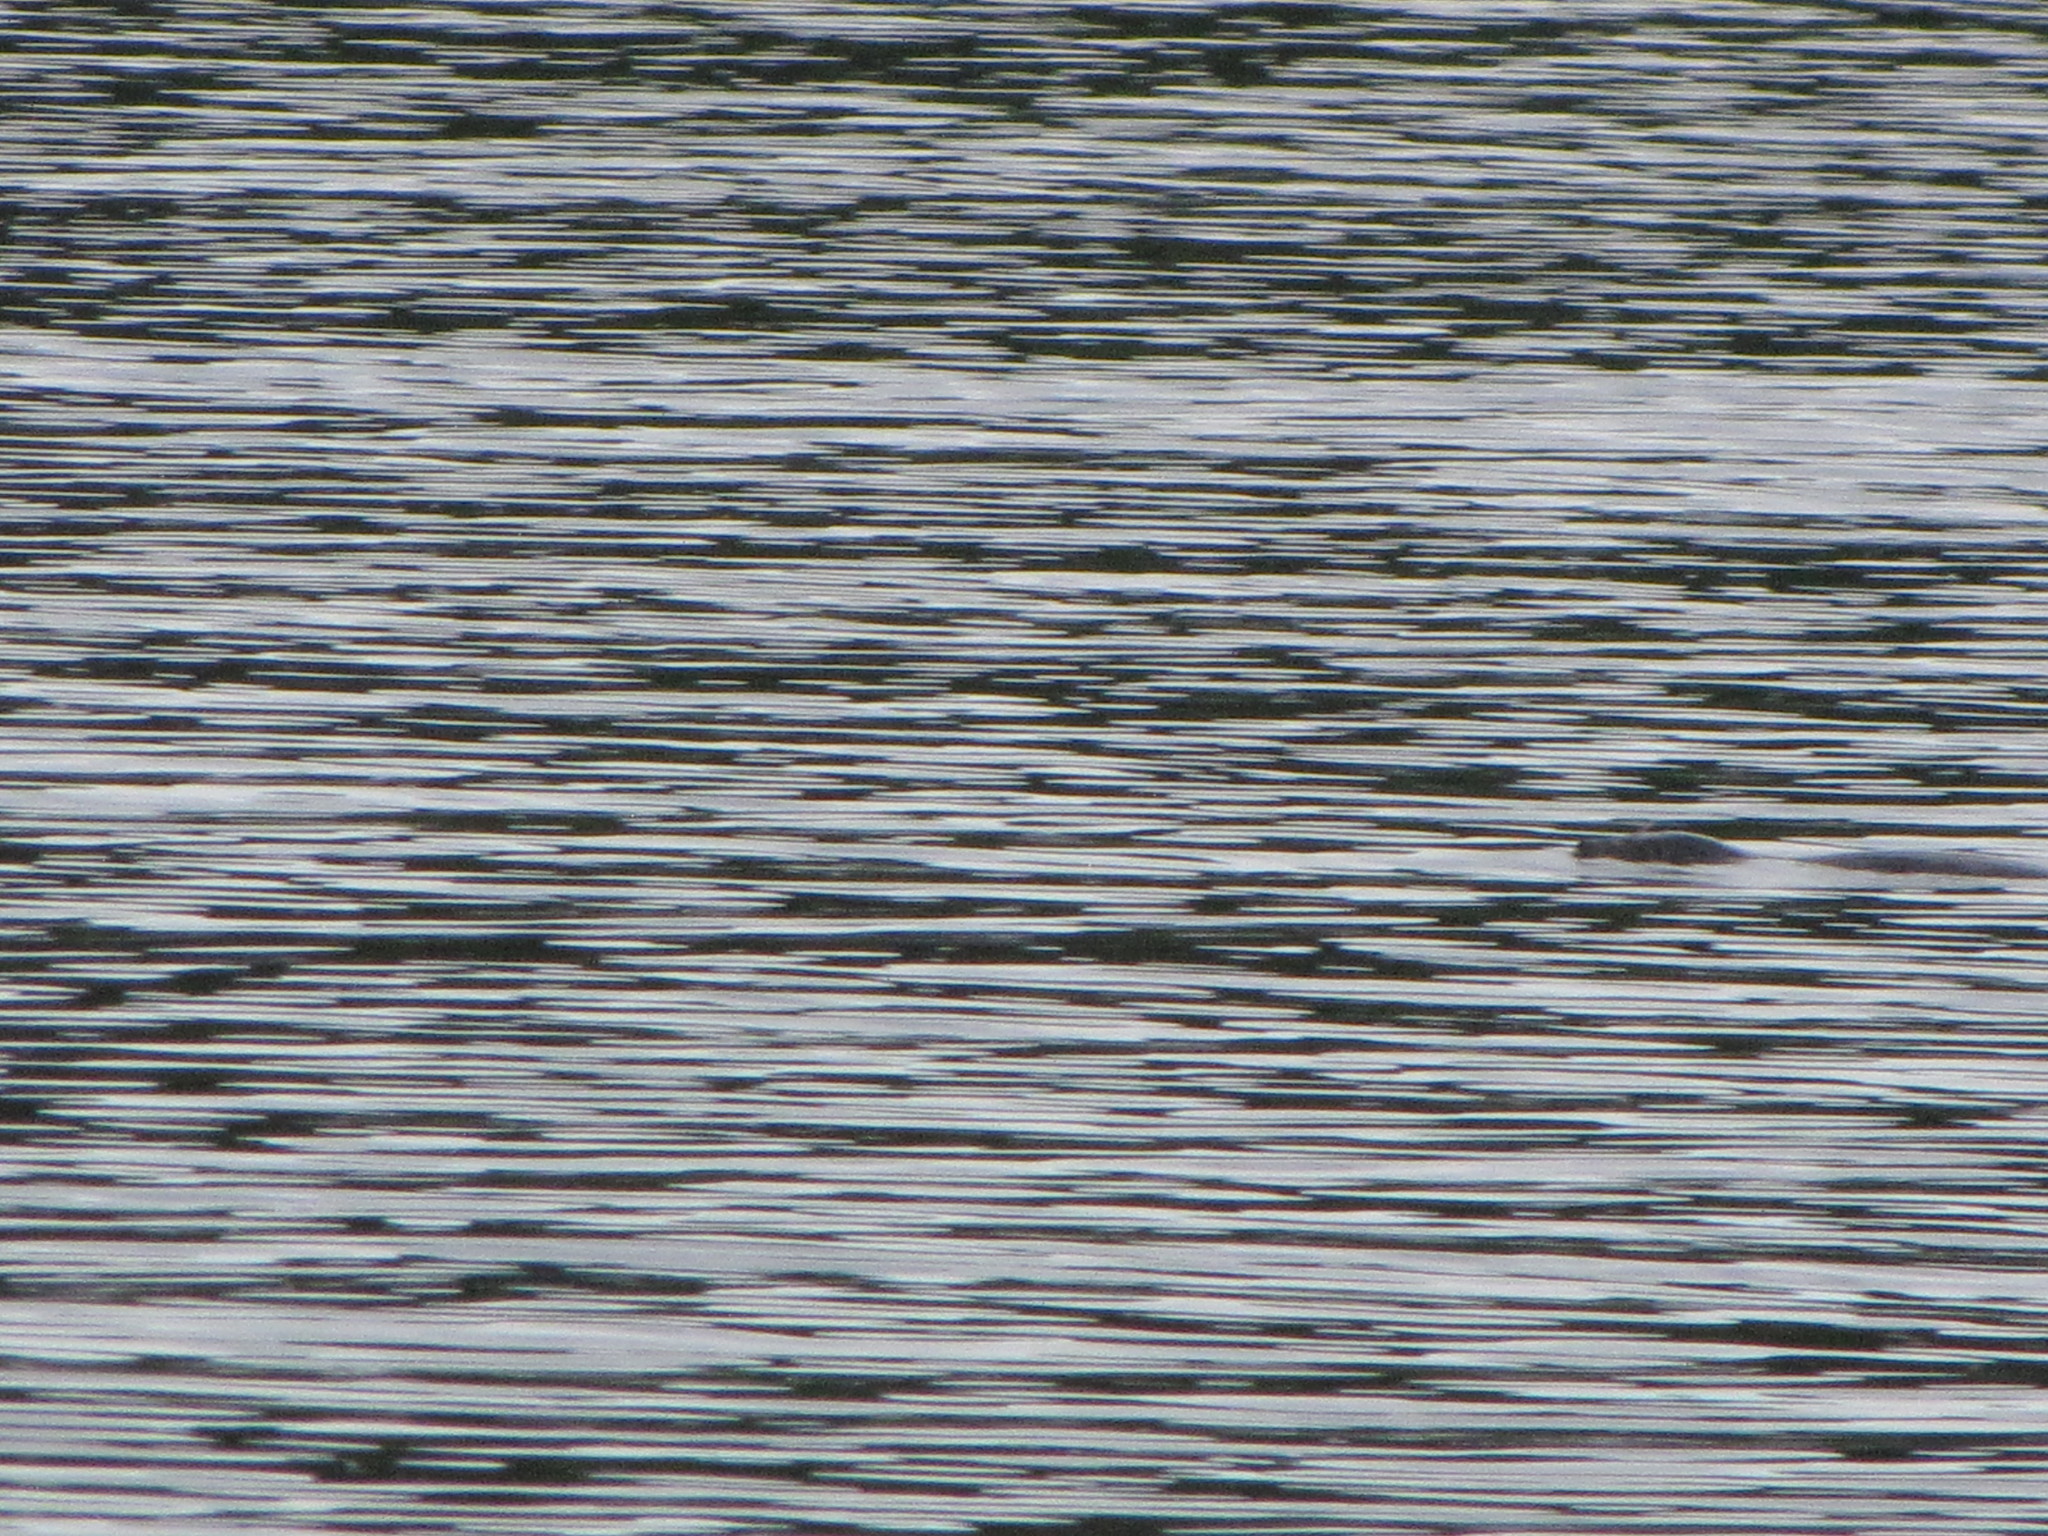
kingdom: Animalia
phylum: Chordata
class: Mammalia
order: Carnivora
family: Phocidae
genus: Phoca
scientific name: Phoca vitulina
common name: Harbor seal
